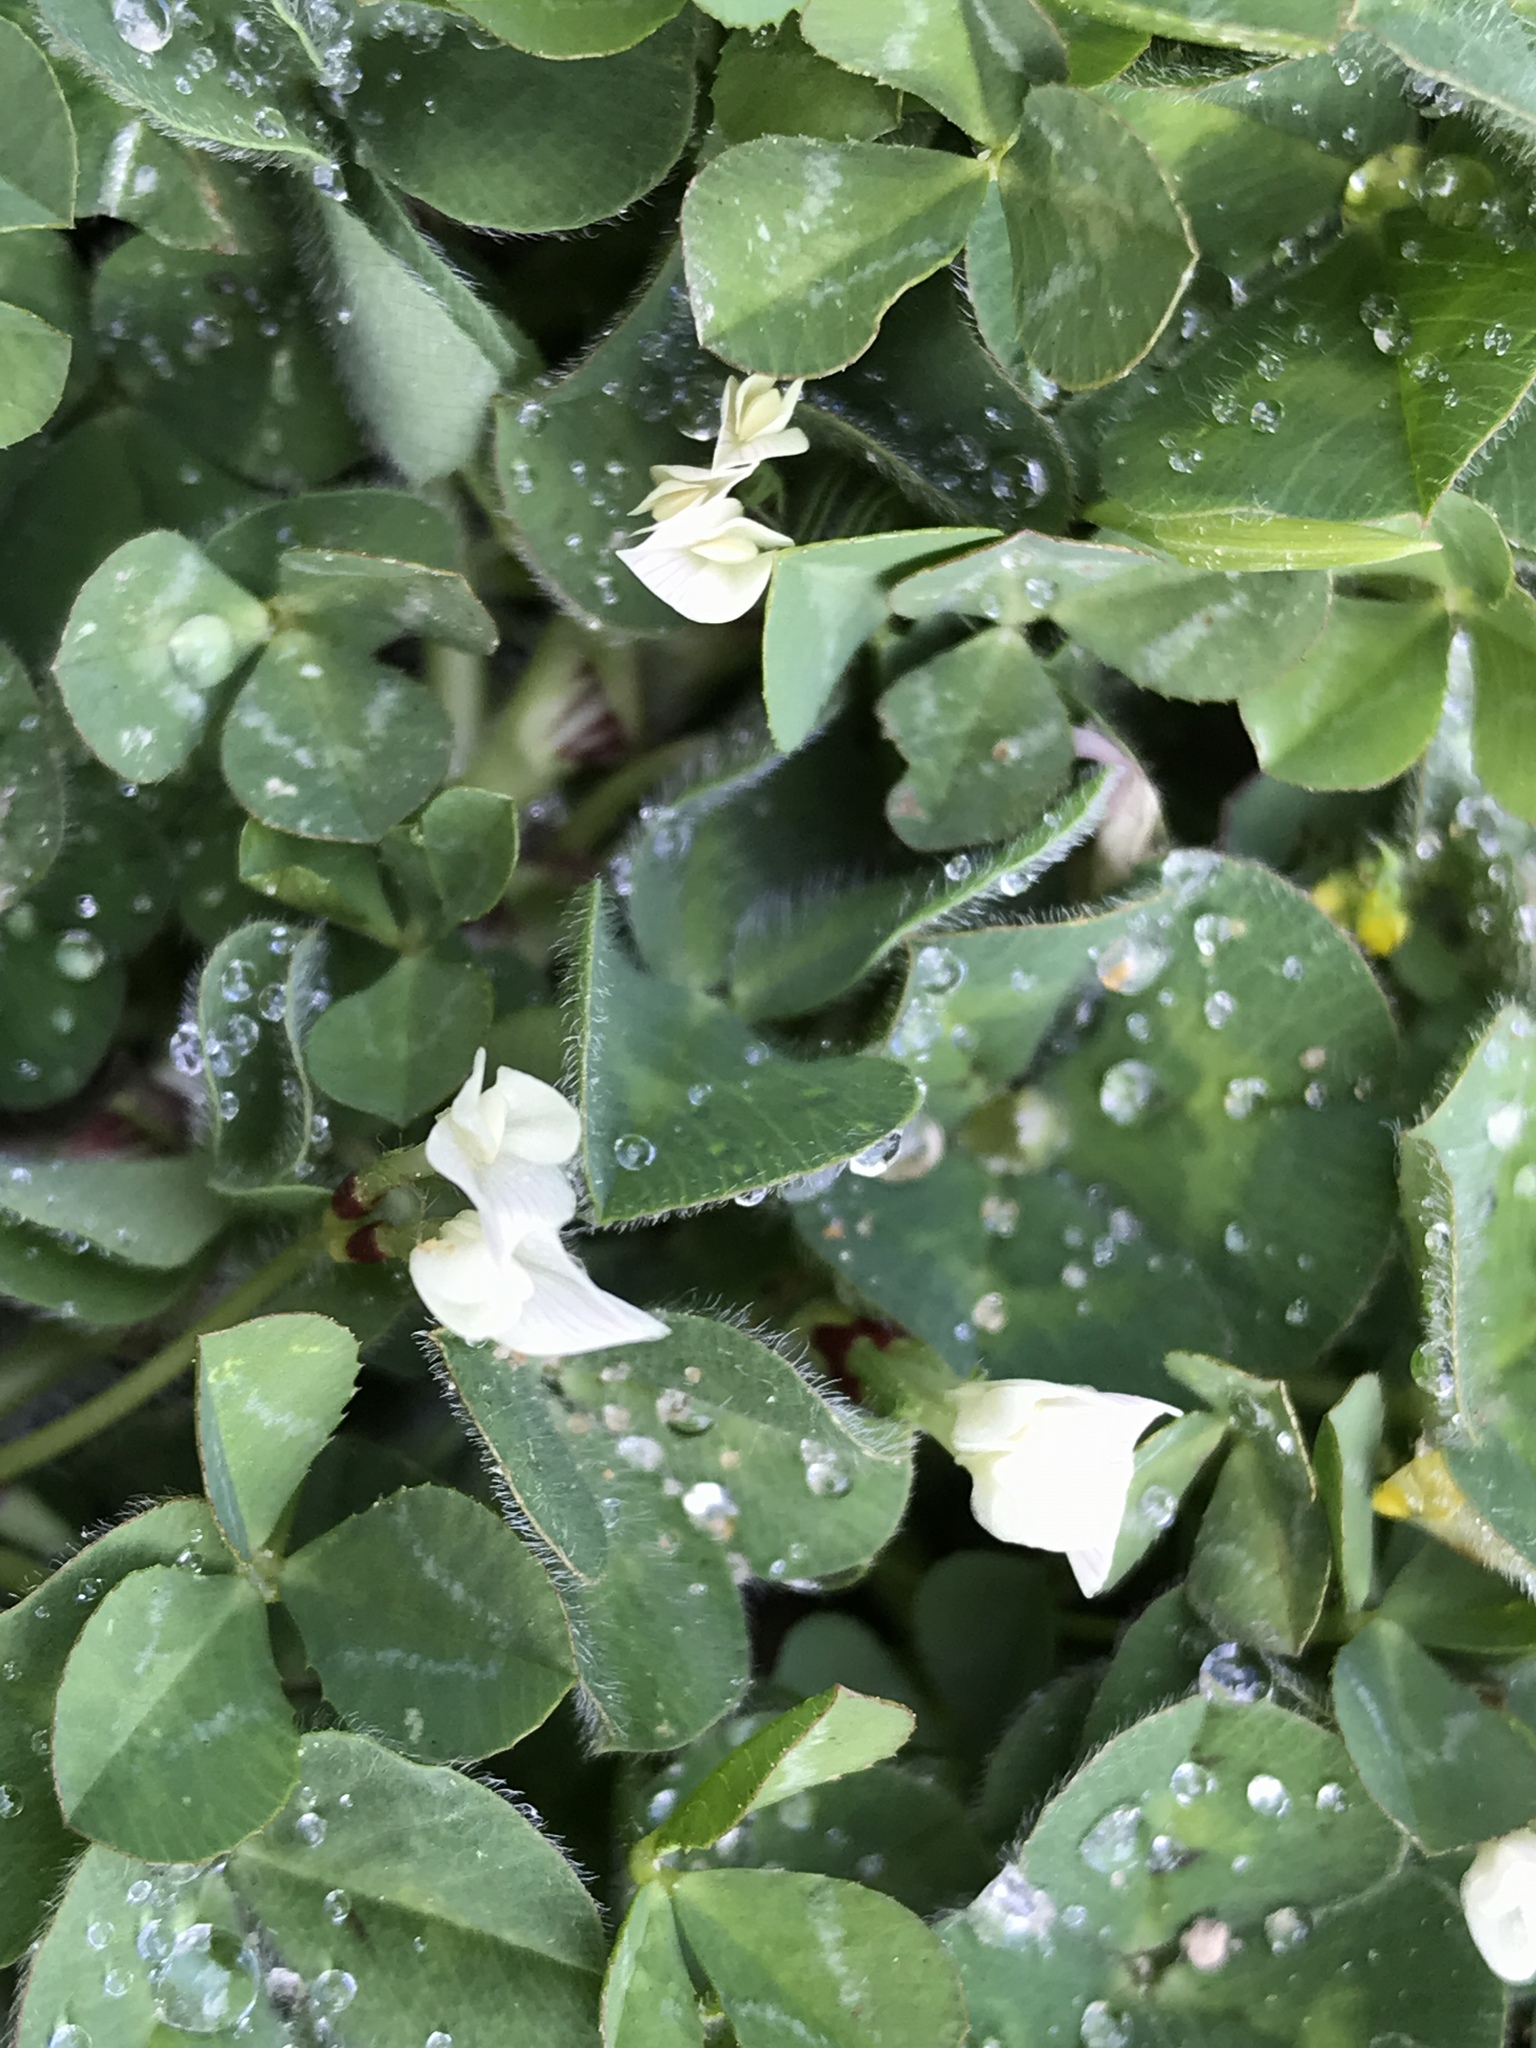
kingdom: Plantae
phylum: Tracheophyta
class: Magnoliopsida
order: Fabales
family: Fabaceae
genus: Trifolium
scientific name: Trifolium subterraneum
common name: Subterranean clover
